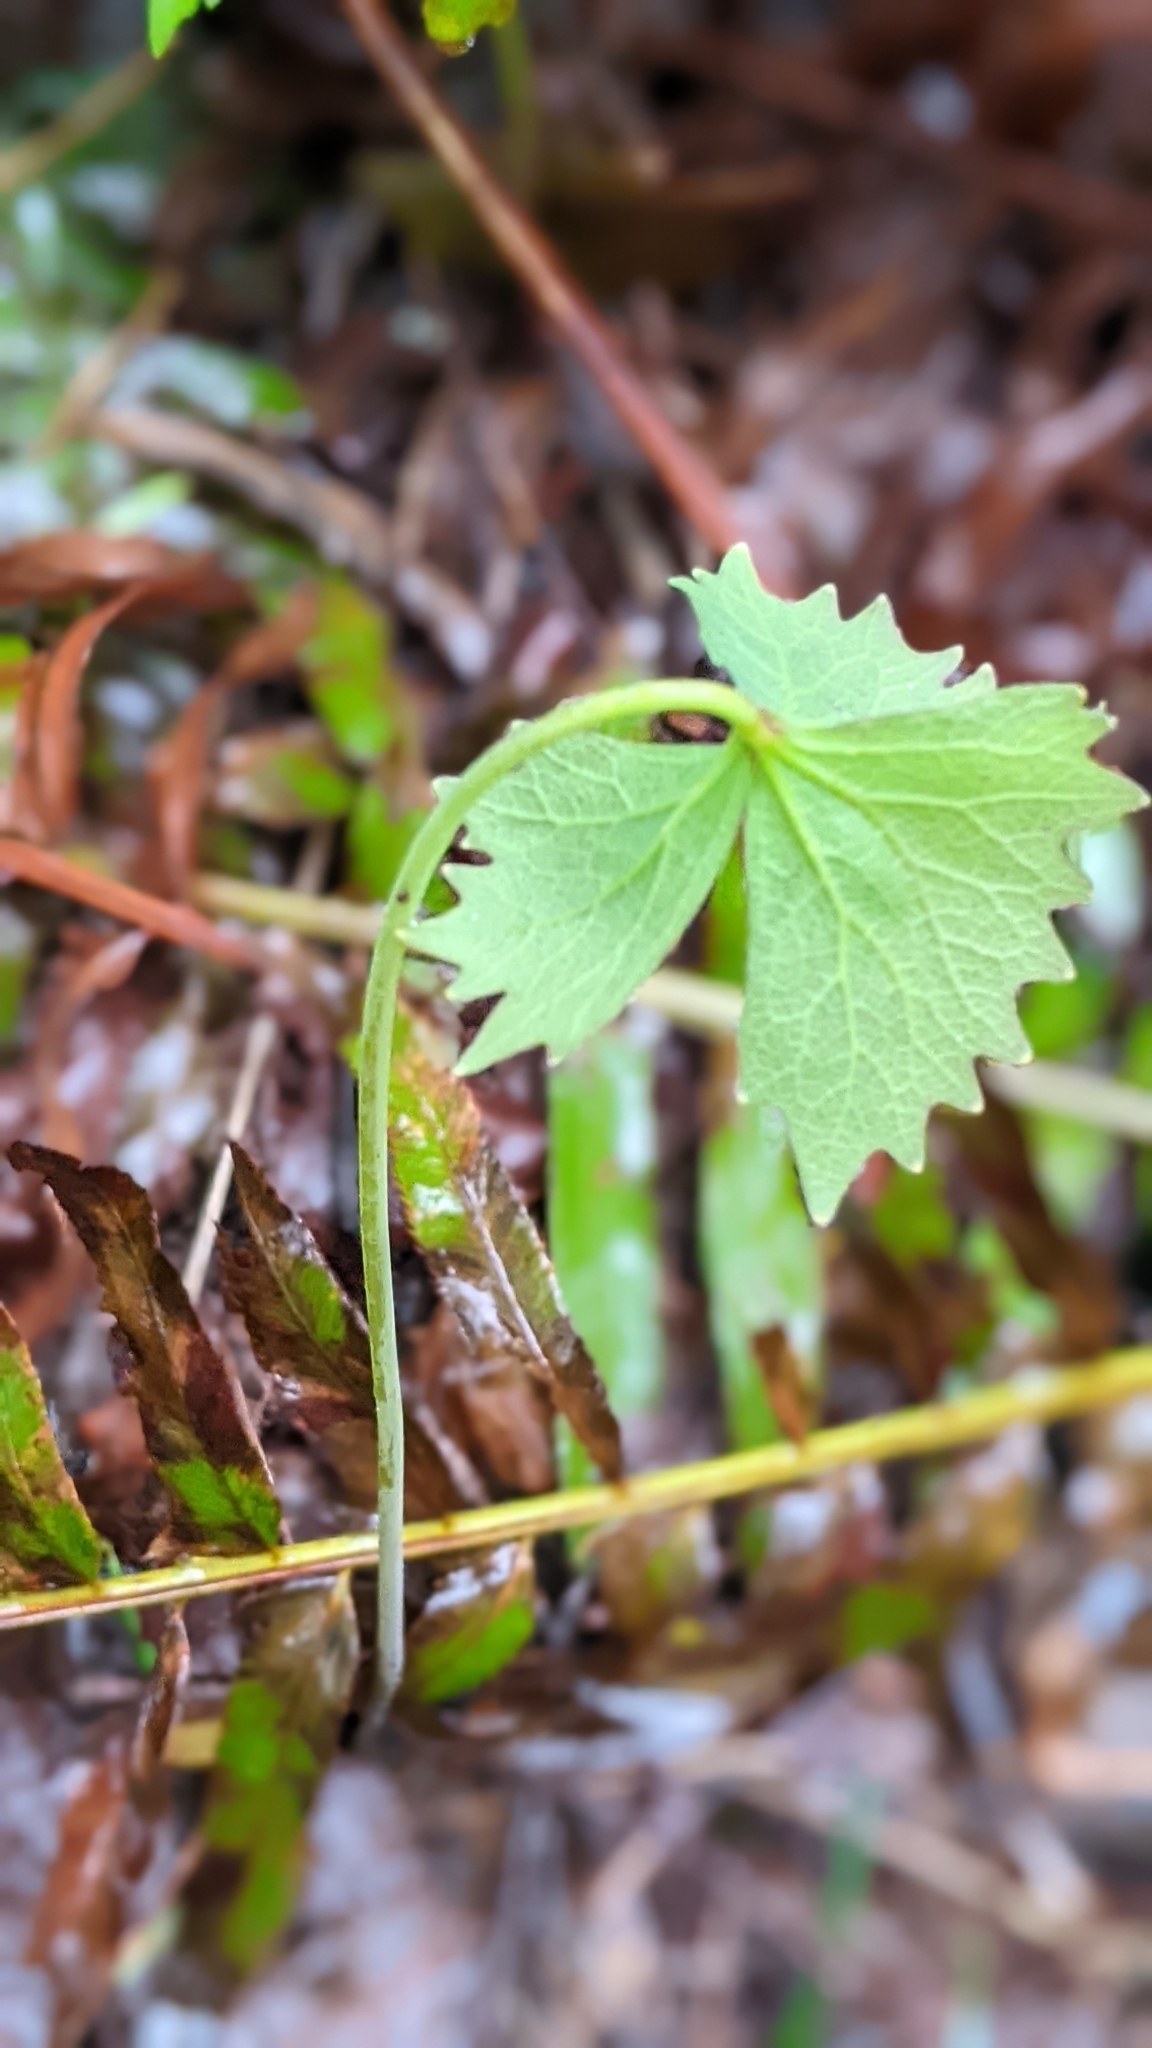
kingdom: Plantae
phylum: Tracheophyta
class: Magnoliopsida
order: Ranunculales
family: Berberidaceae
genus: Achlys
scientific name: Achlys triphylla
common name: Vanilla-leaf
